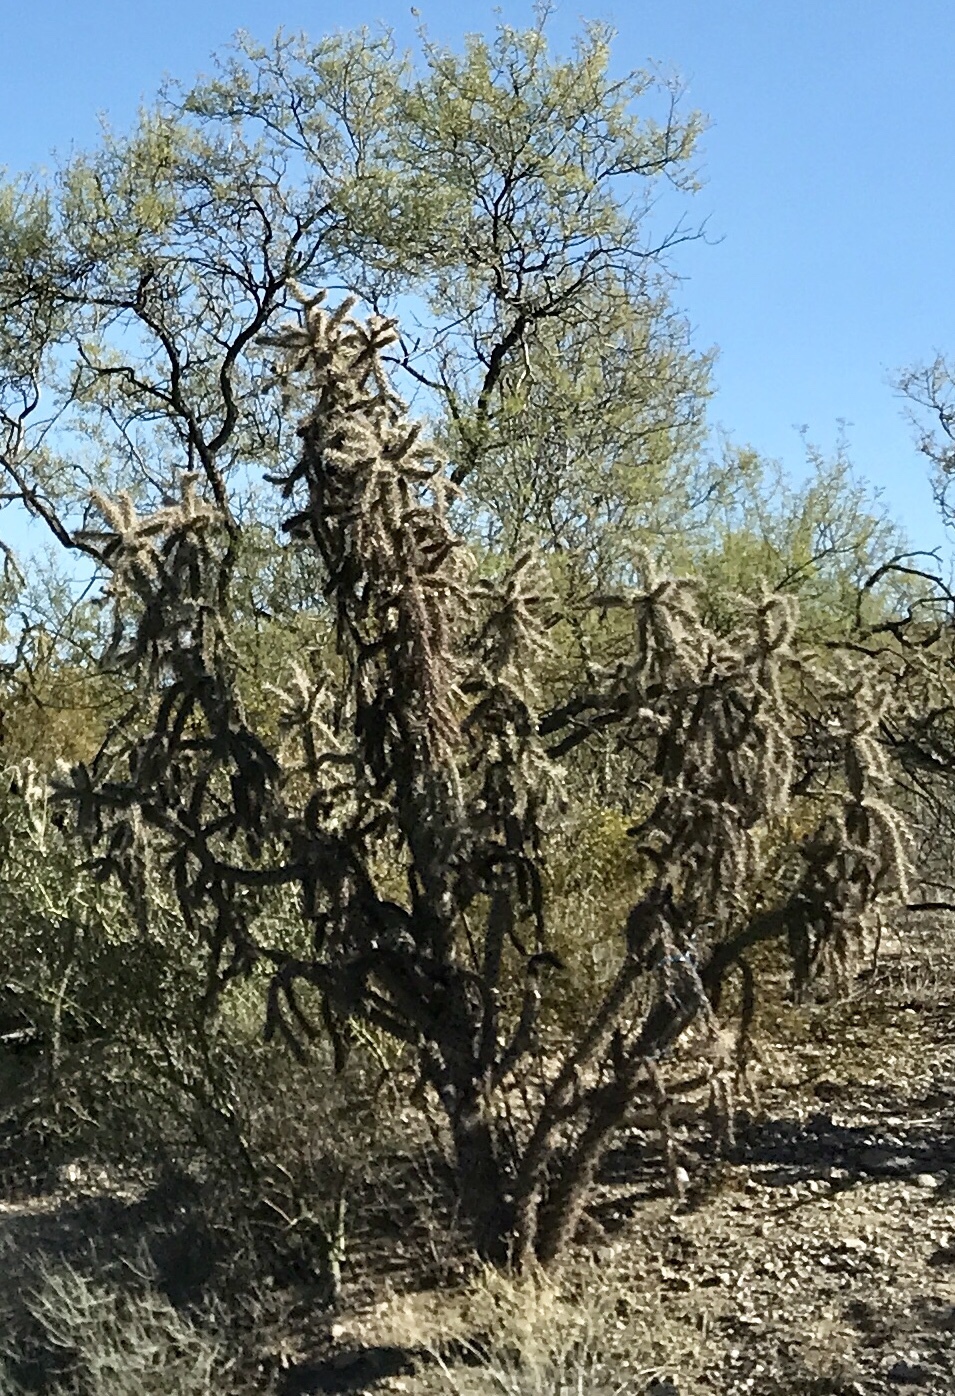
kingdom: Plantae
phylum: Tracheophyta
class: Magnoliopsida
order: Caryophyllales
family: Cactaceae
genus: Cylindropuntia
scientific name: Cylindropuntia acanthocarpa
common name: Buckhorn cholla
